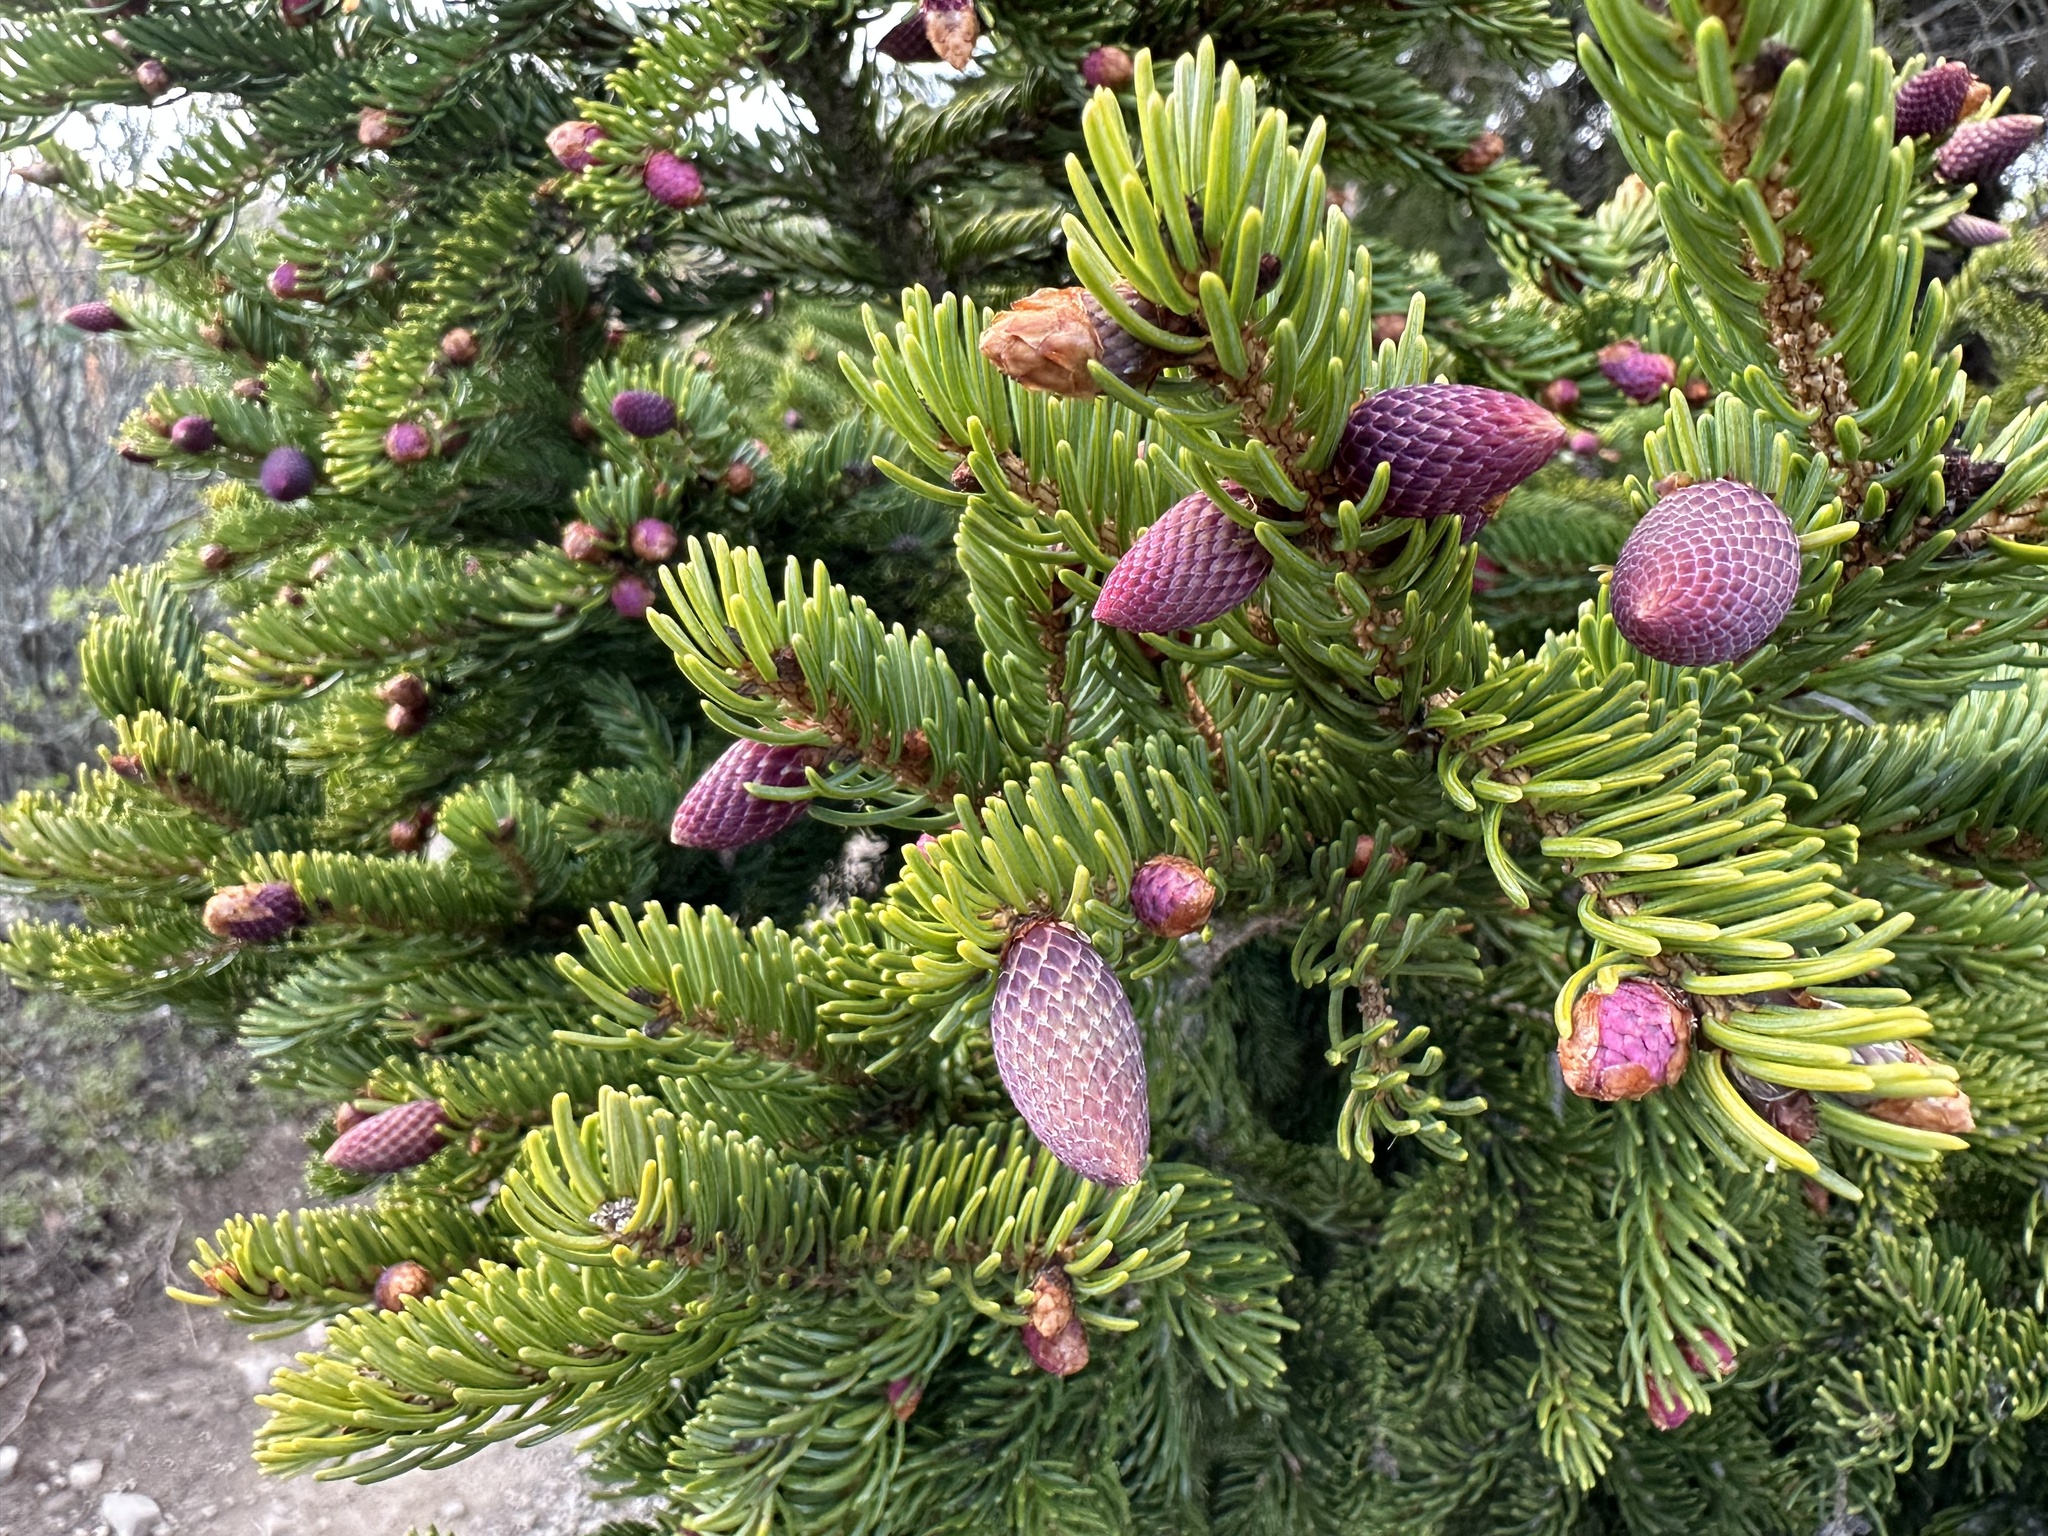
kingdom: Plantae
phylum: Tracheophyta
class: Pinopsida
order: Pinales
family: Pinaceae
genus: Picea
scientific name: Picea rubens
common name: Red spruce
